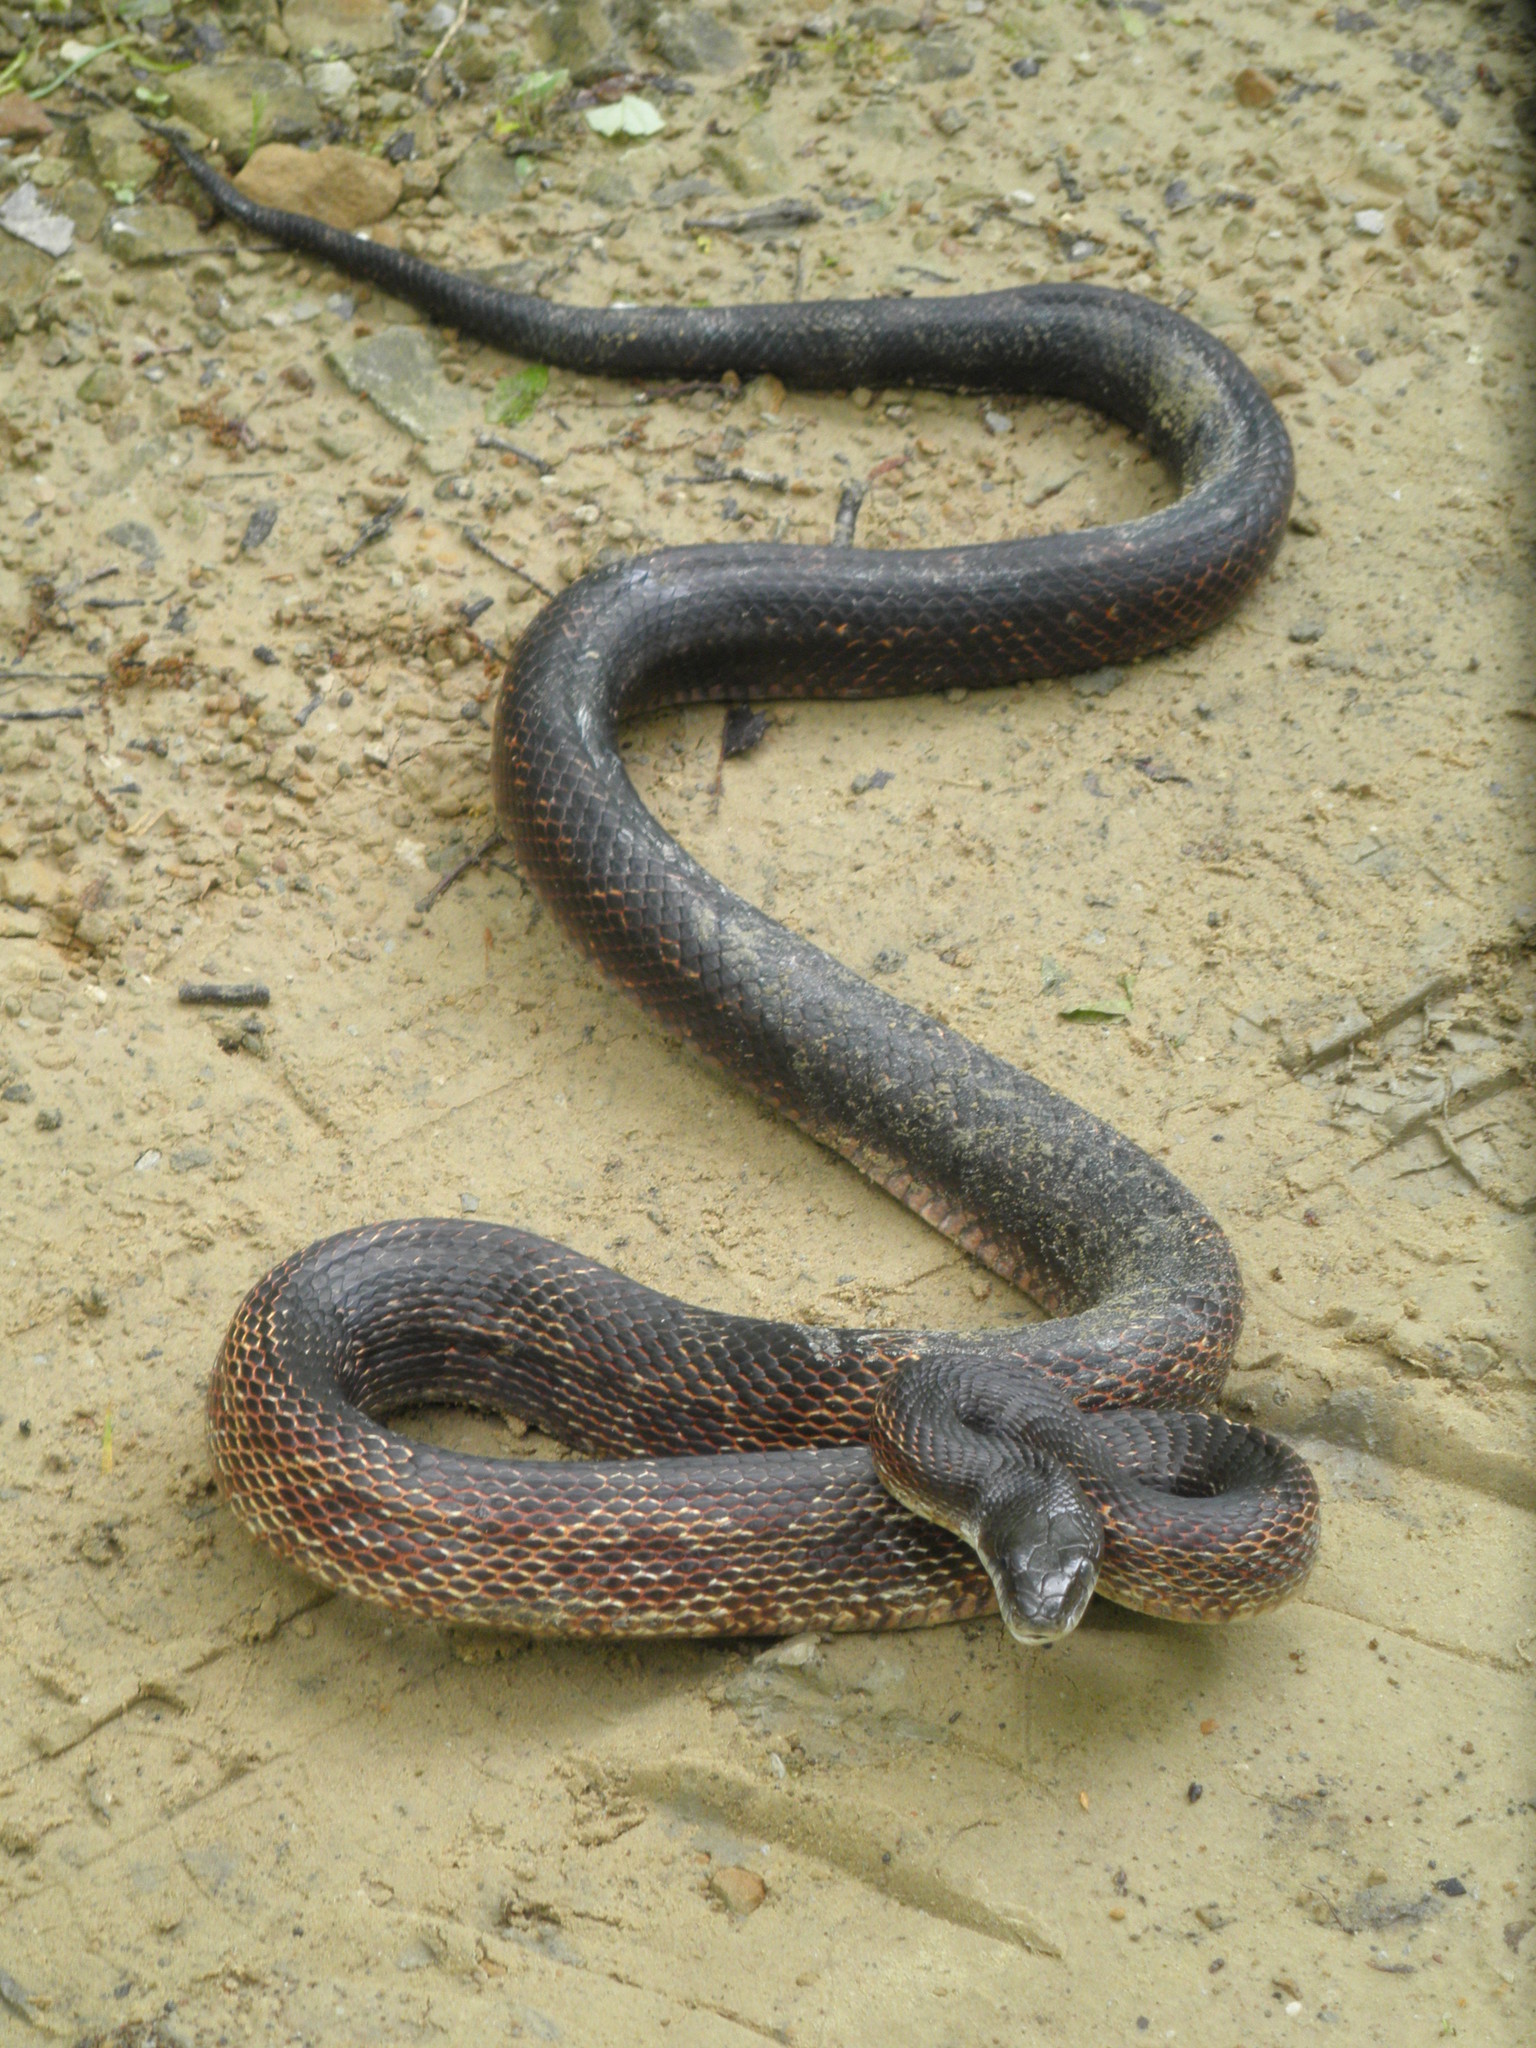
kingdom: Animalia
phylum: Chordata
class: Squamata
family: Colubridae
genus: Pantherophis
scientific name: Pantherophis spiloides
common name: Gray rat snake
